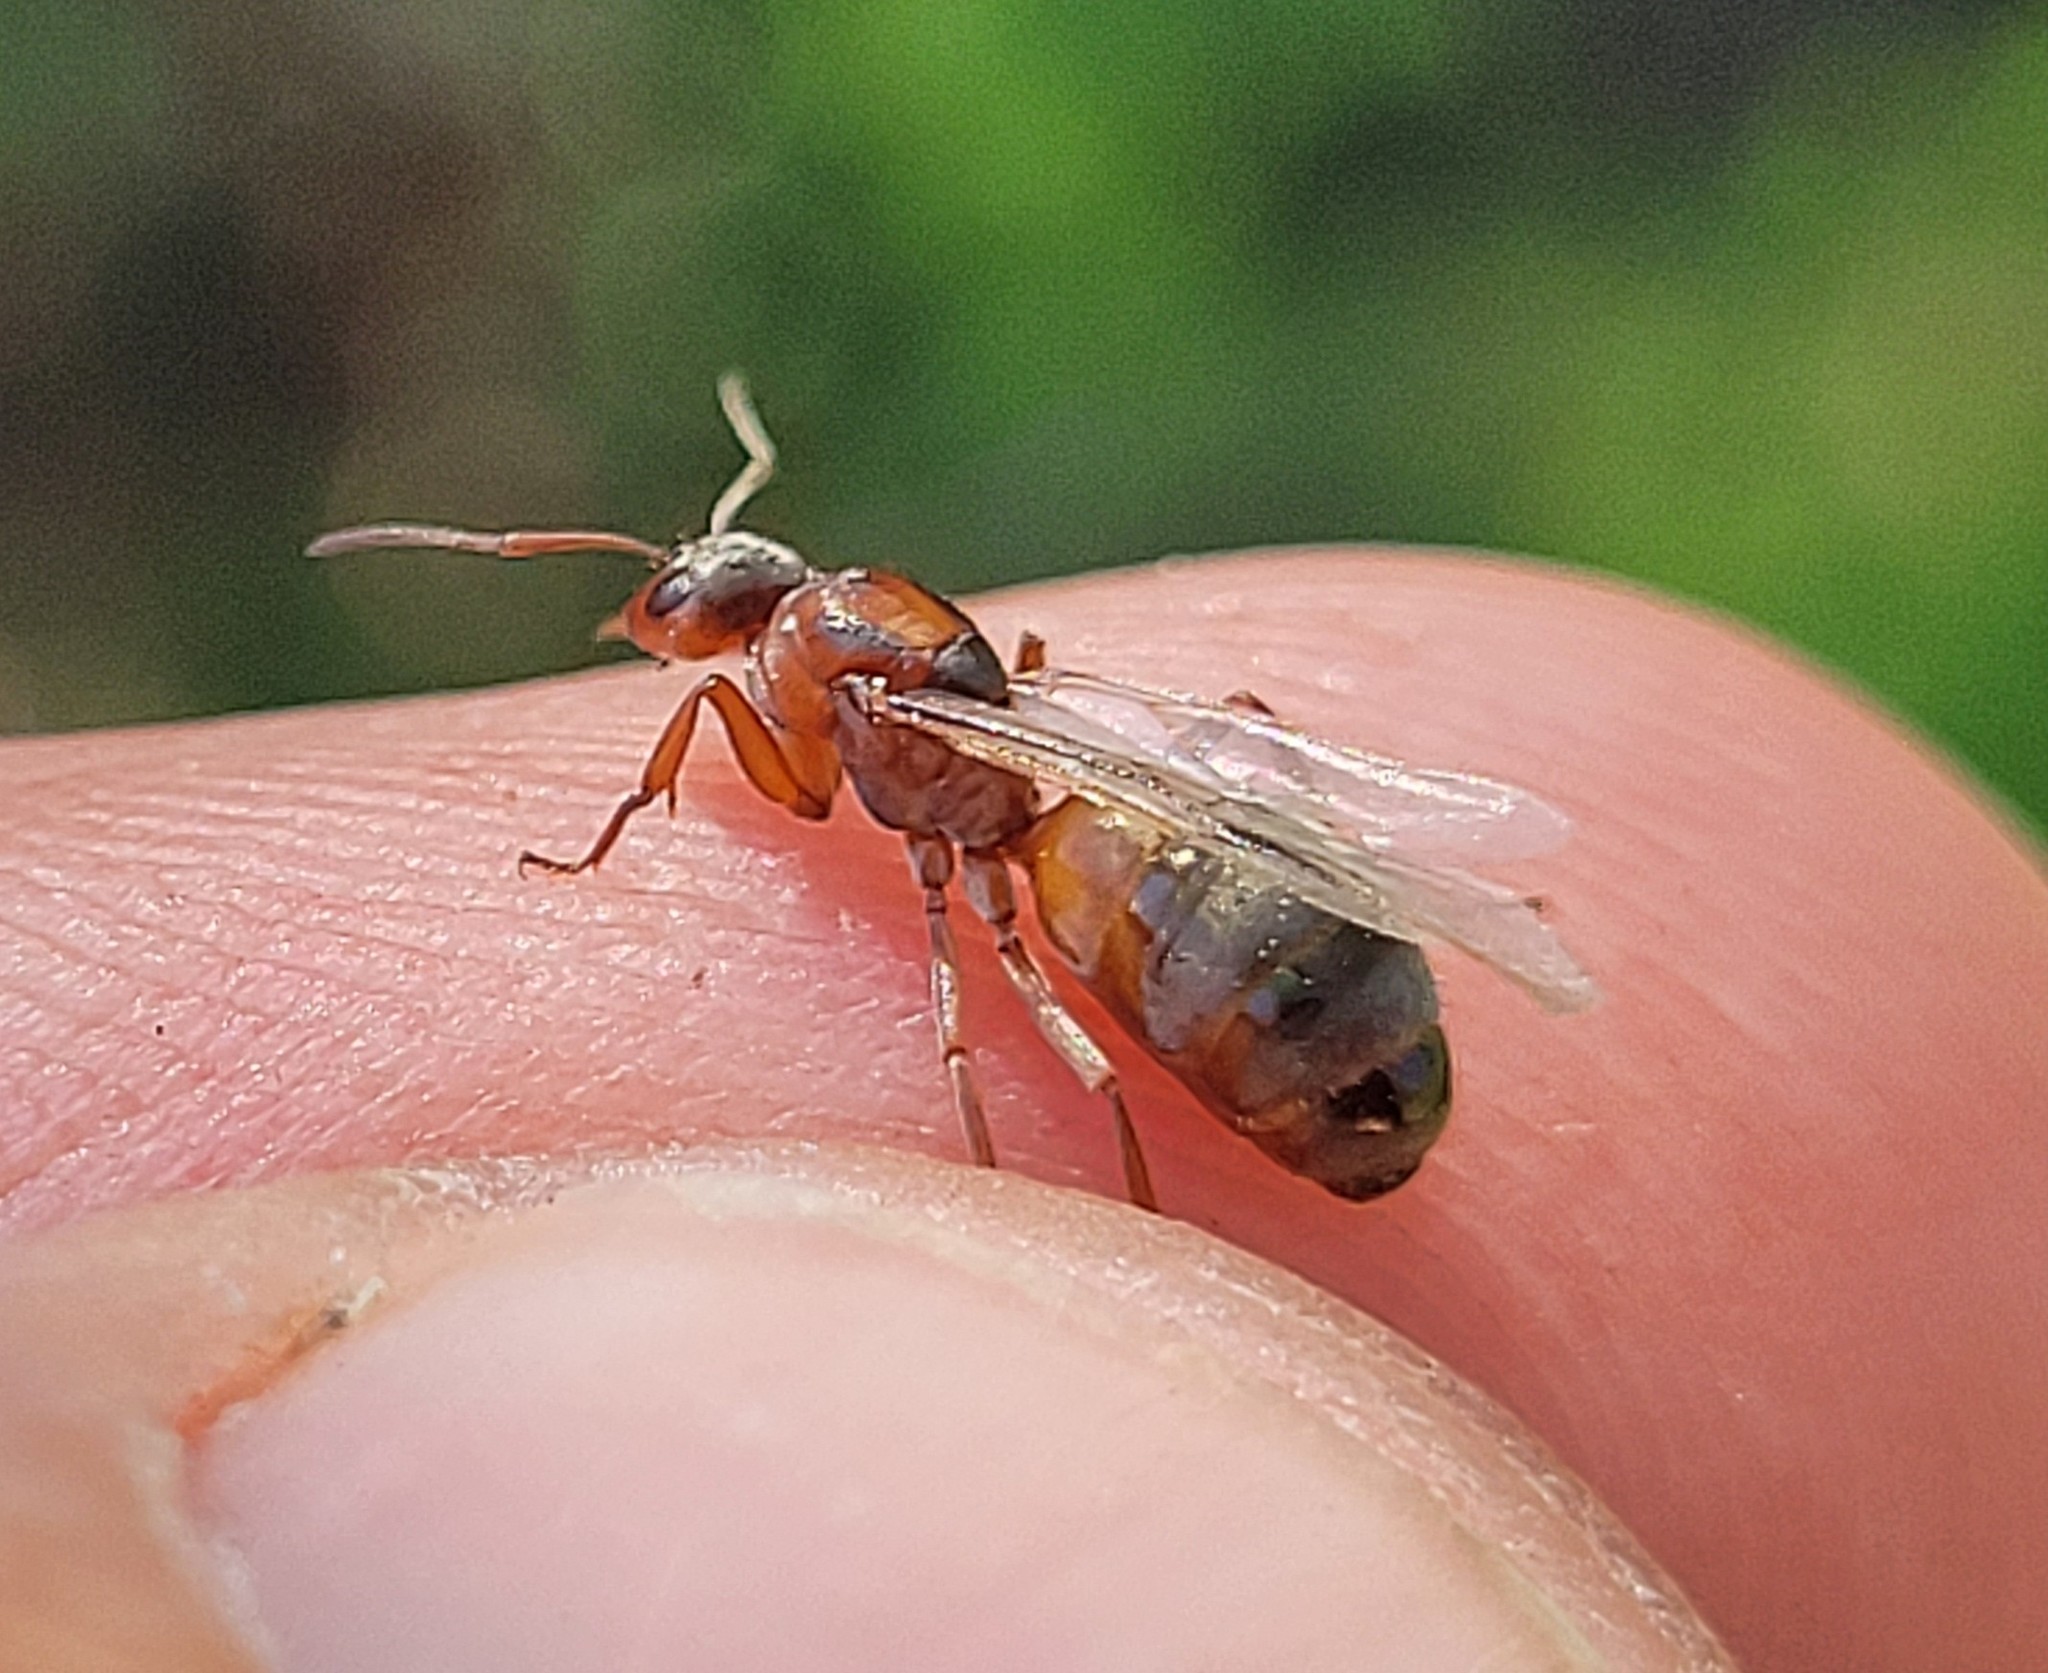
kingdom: Animalia
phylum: Arthropoda
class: Insecta
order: Hymenoptera
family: Formicidae
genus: Formica
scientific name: Formica neoclara
